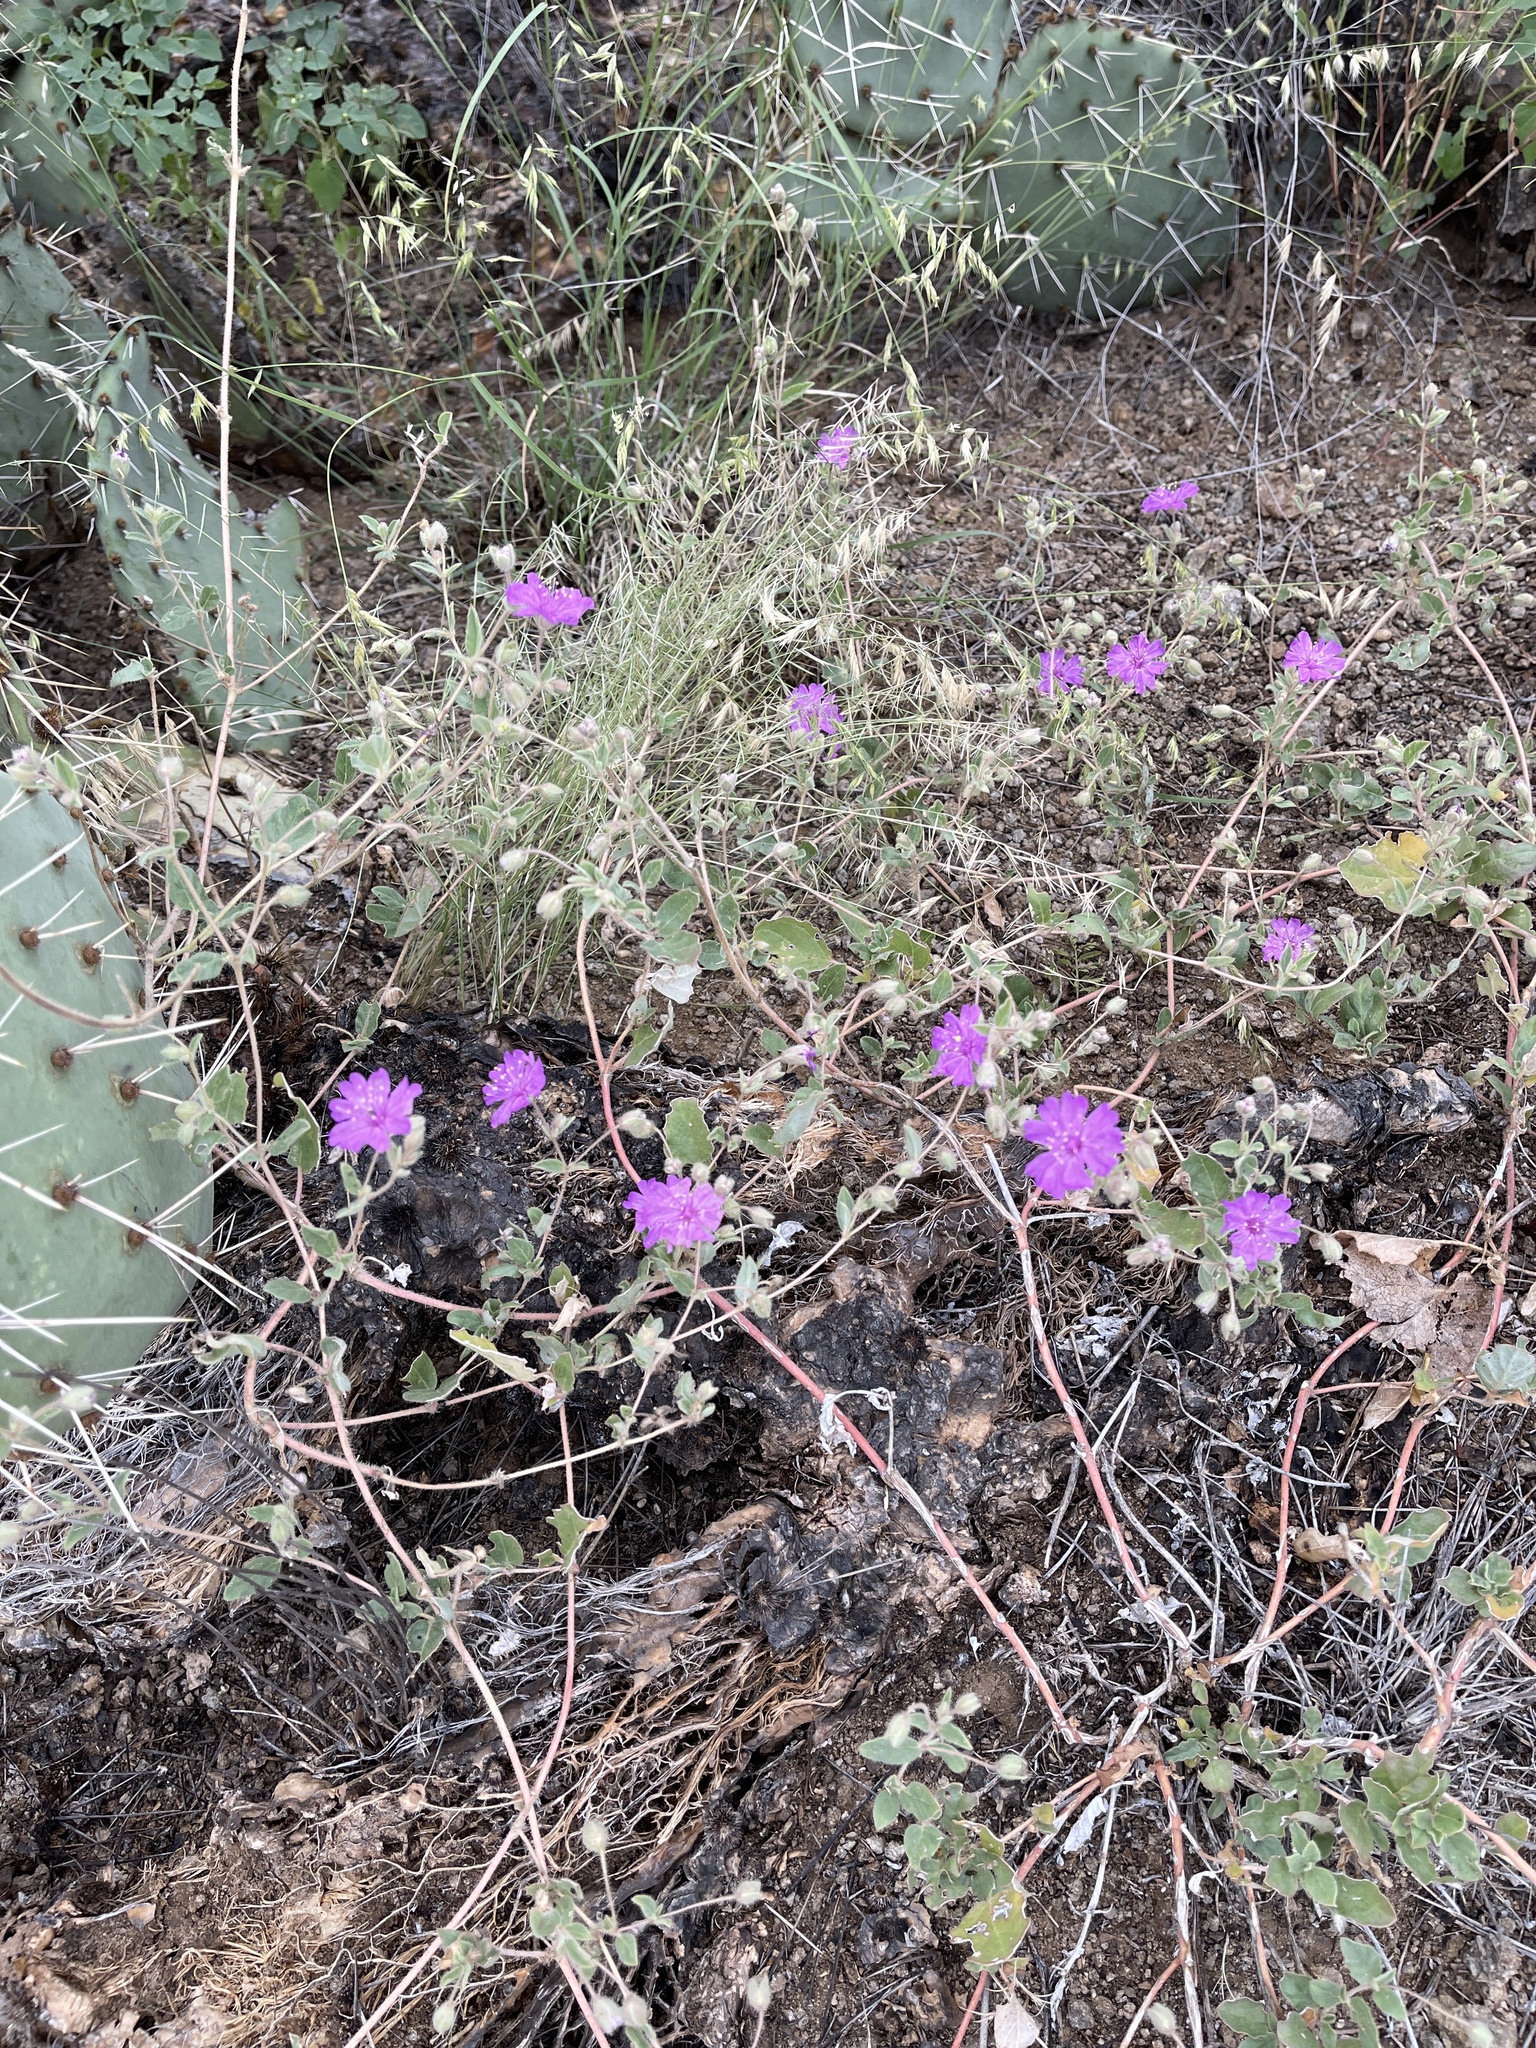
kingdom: Plantae
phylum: Tracheophyta
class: Magnoliopsida
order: Caryophyllales
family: Nyctaginaceae
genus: Allionia
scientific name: Allionia incarnata
